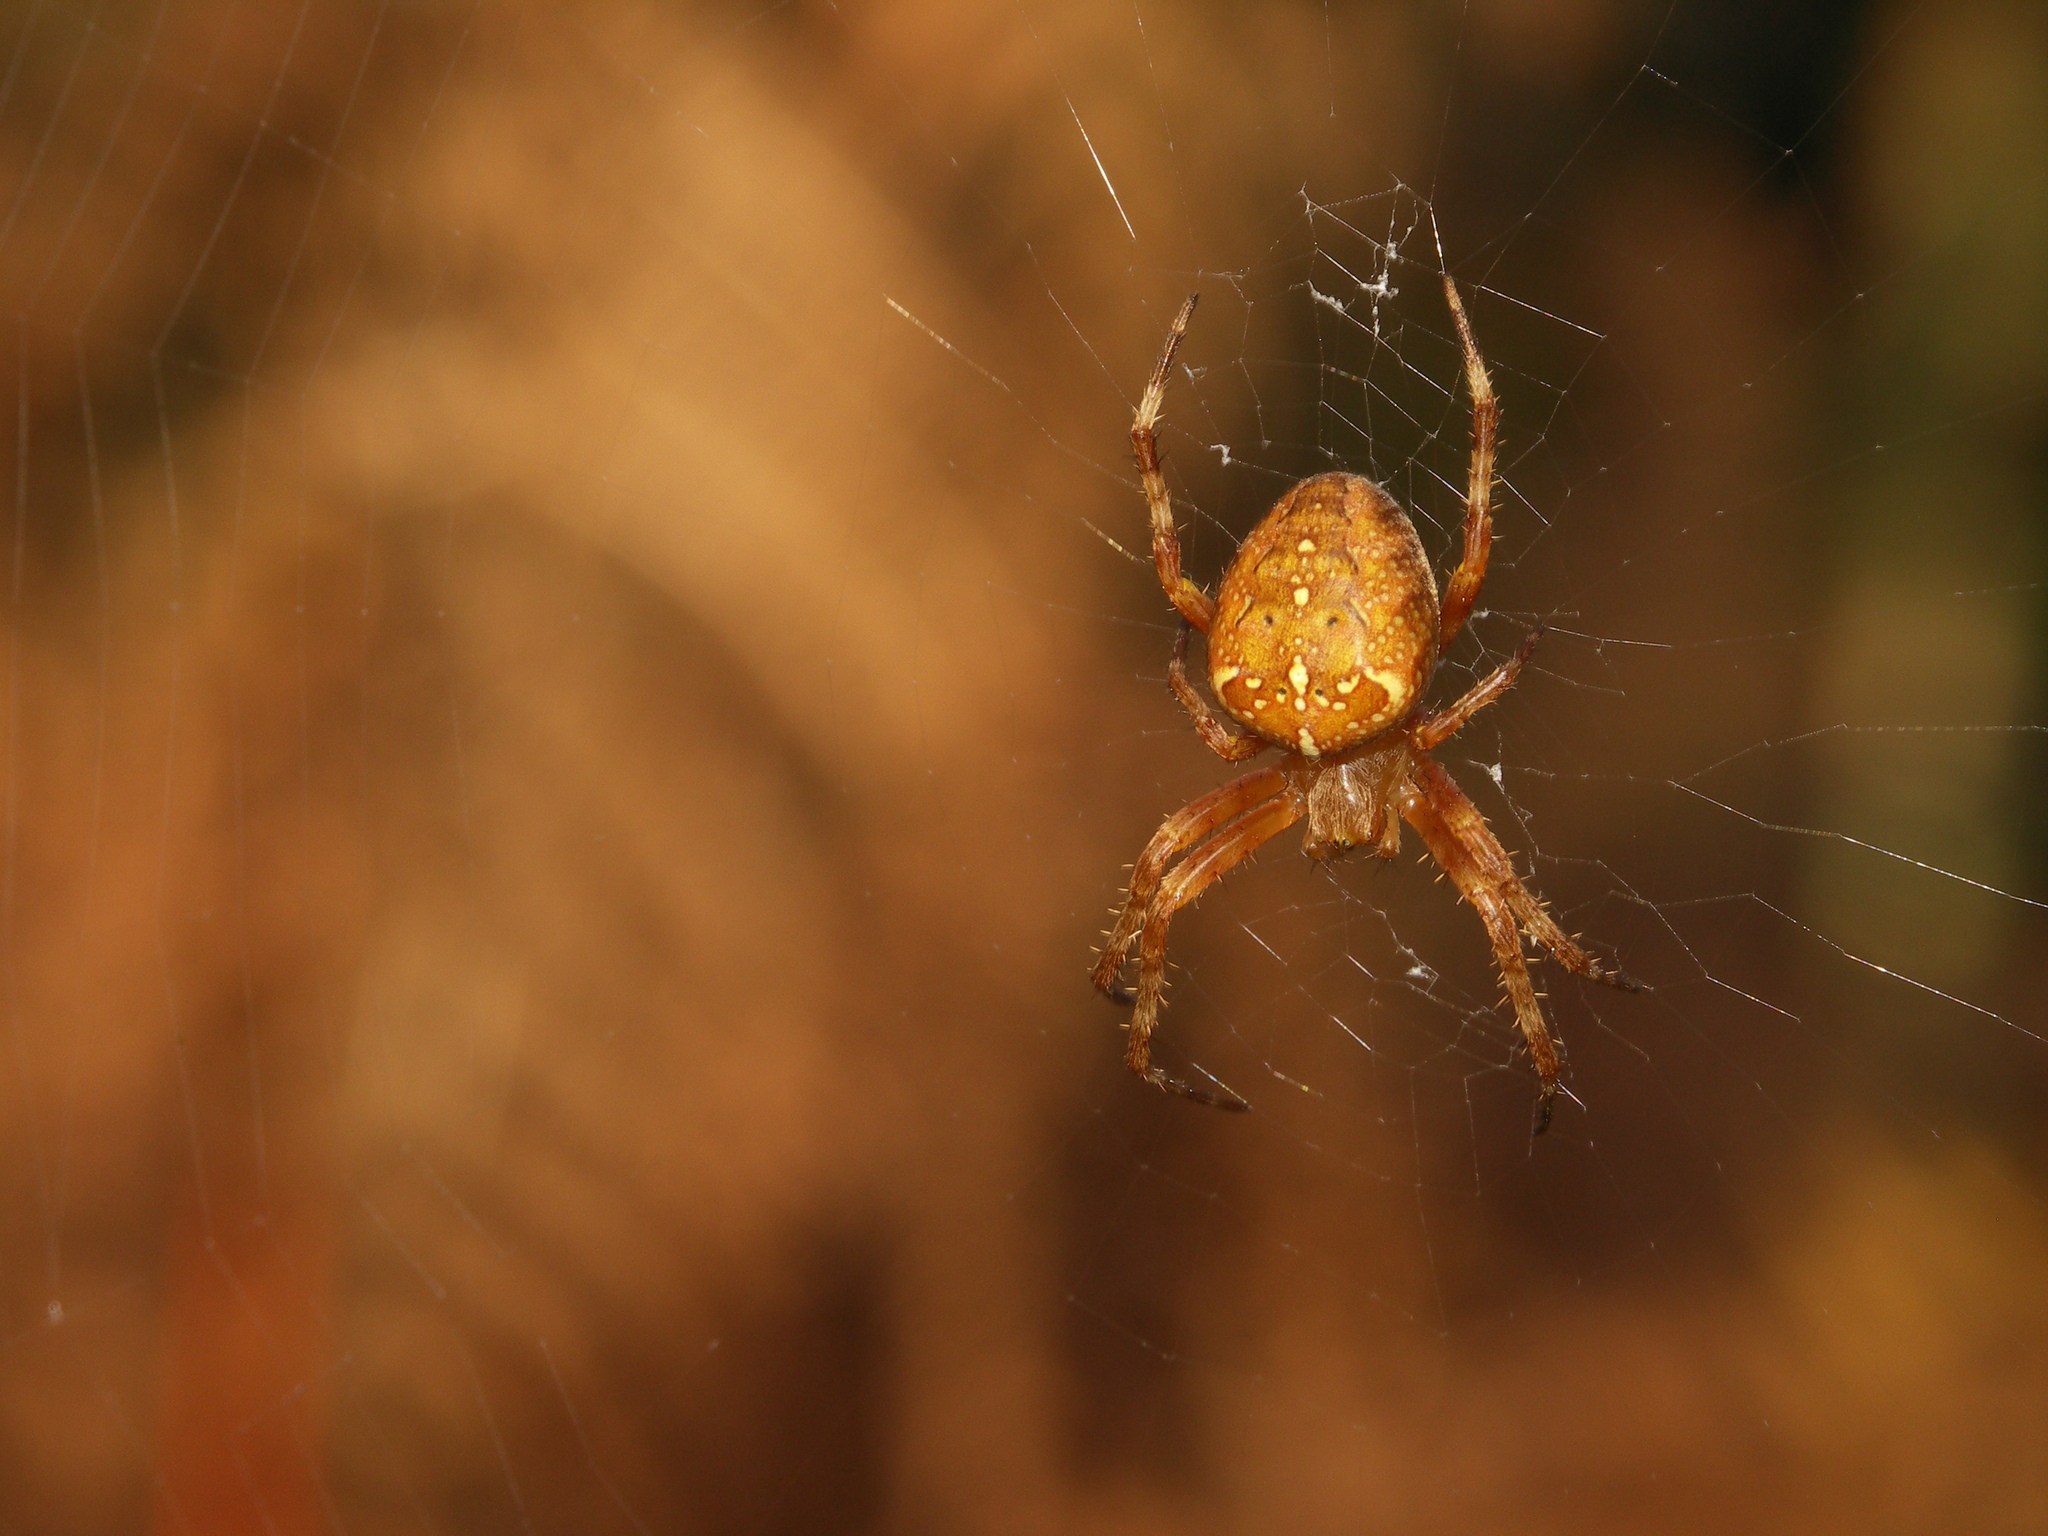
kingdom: Animalia
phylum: Arthropoda
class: Arachnida
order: Araneae
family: Araneidae
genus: Araneus
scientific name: Araneus diadematus
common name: Cross orbweaver
